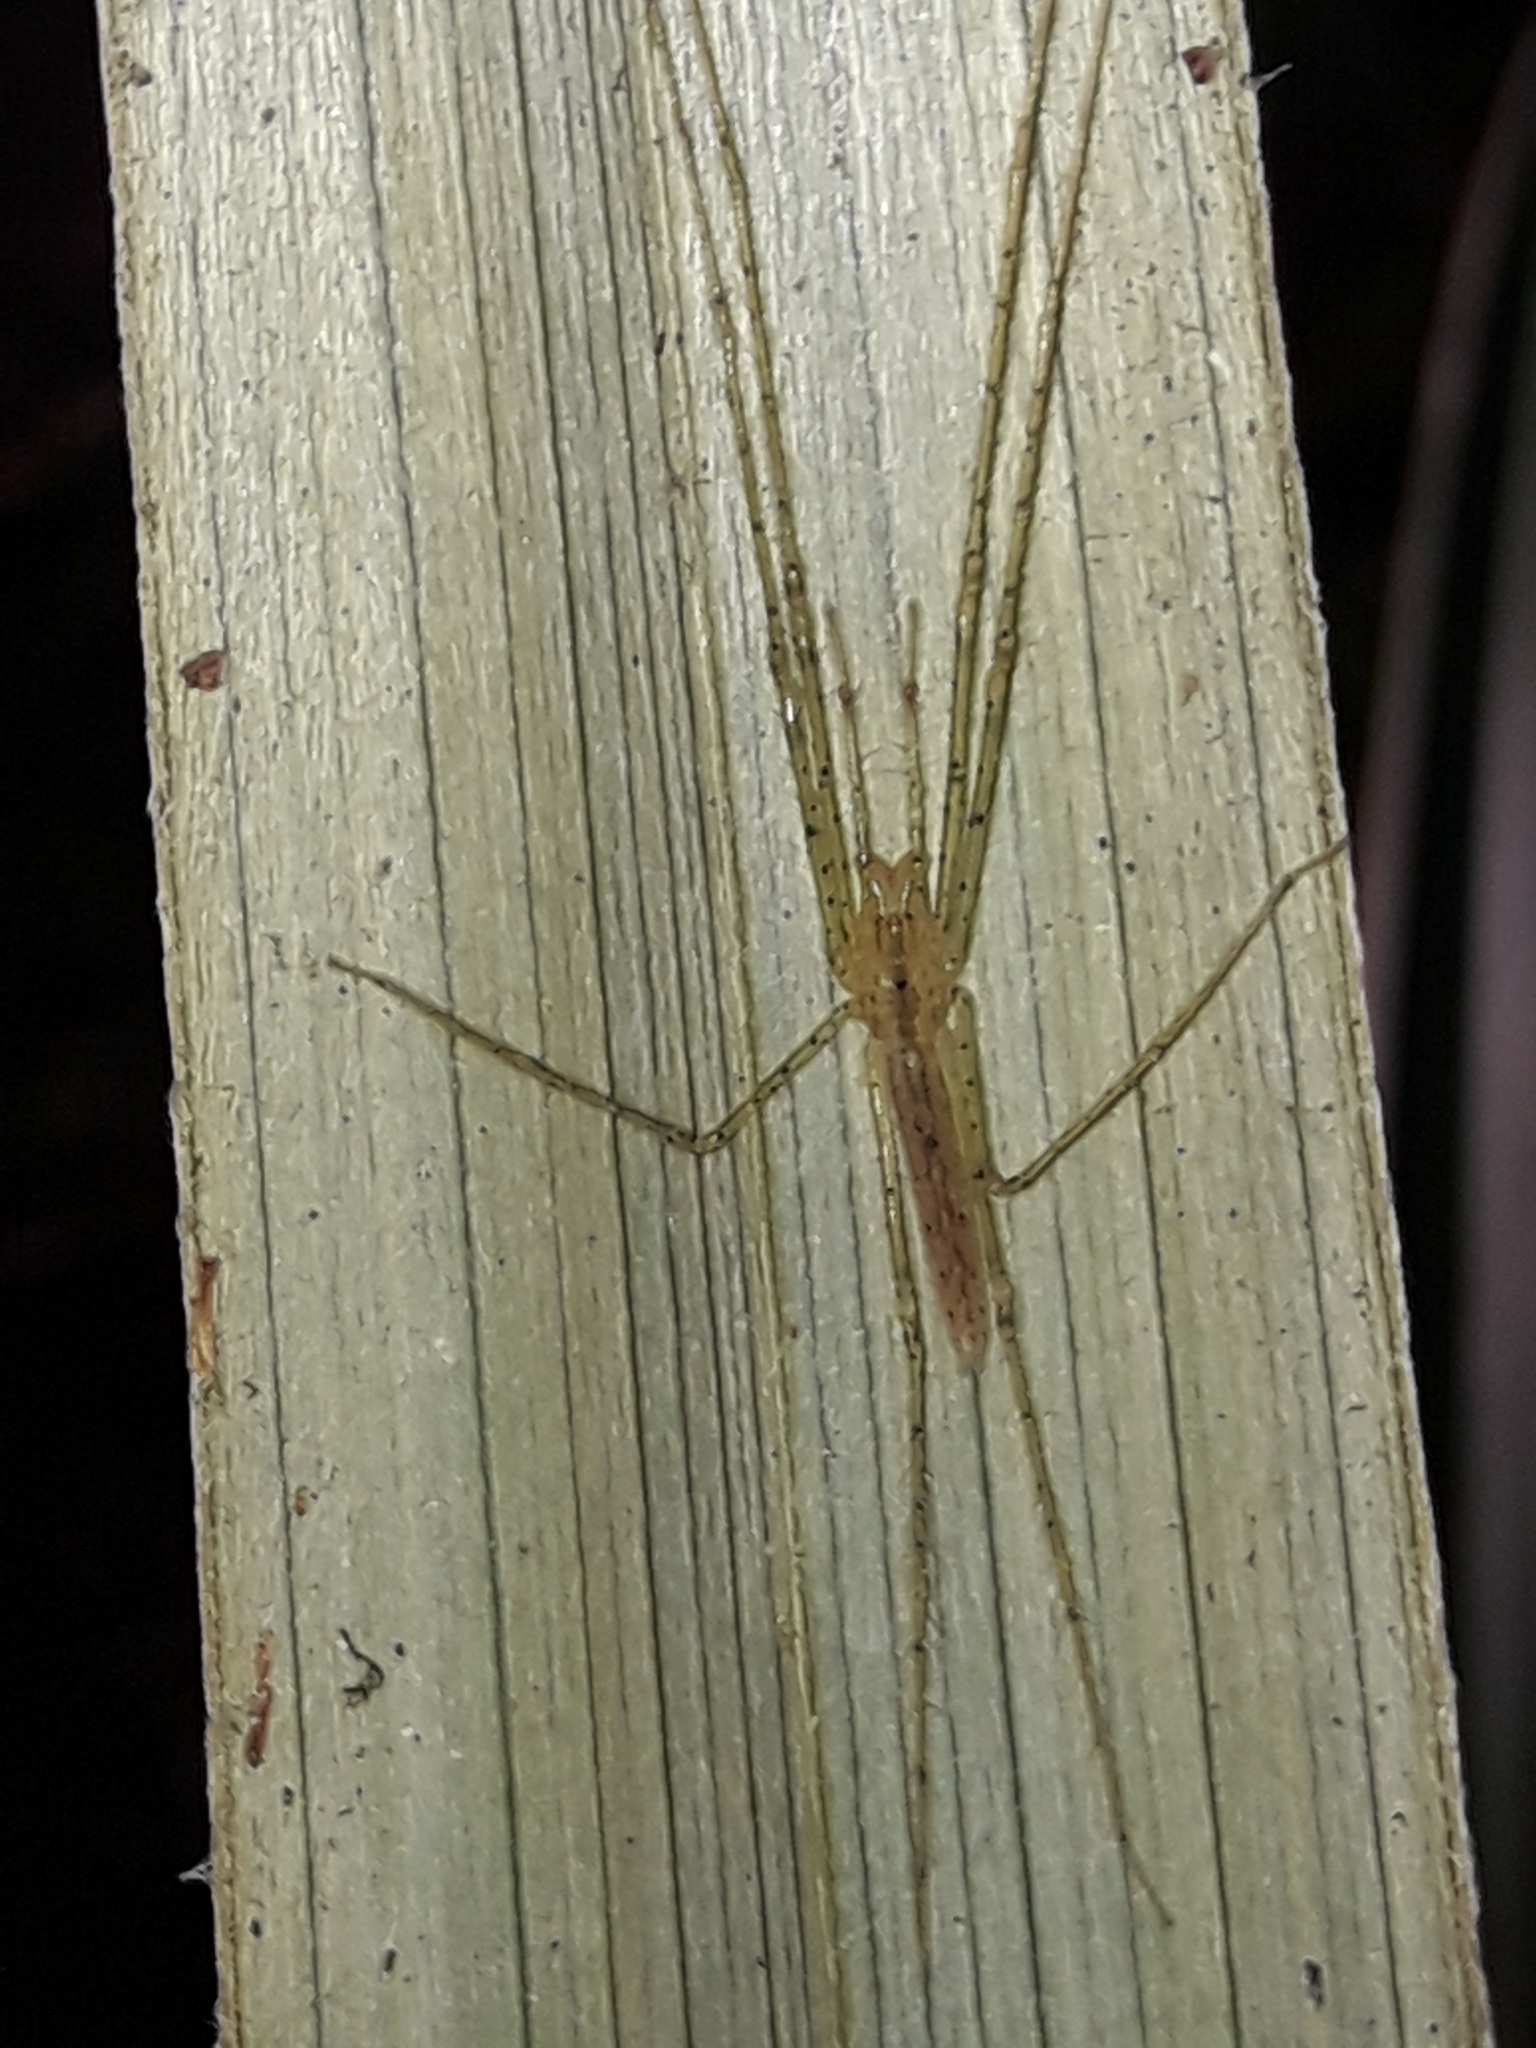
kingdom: Animalia
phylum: Arthropoda
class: Arachnida
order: Araneae
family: Desidae
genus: Ischalea
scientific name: Ischalea spinipes
